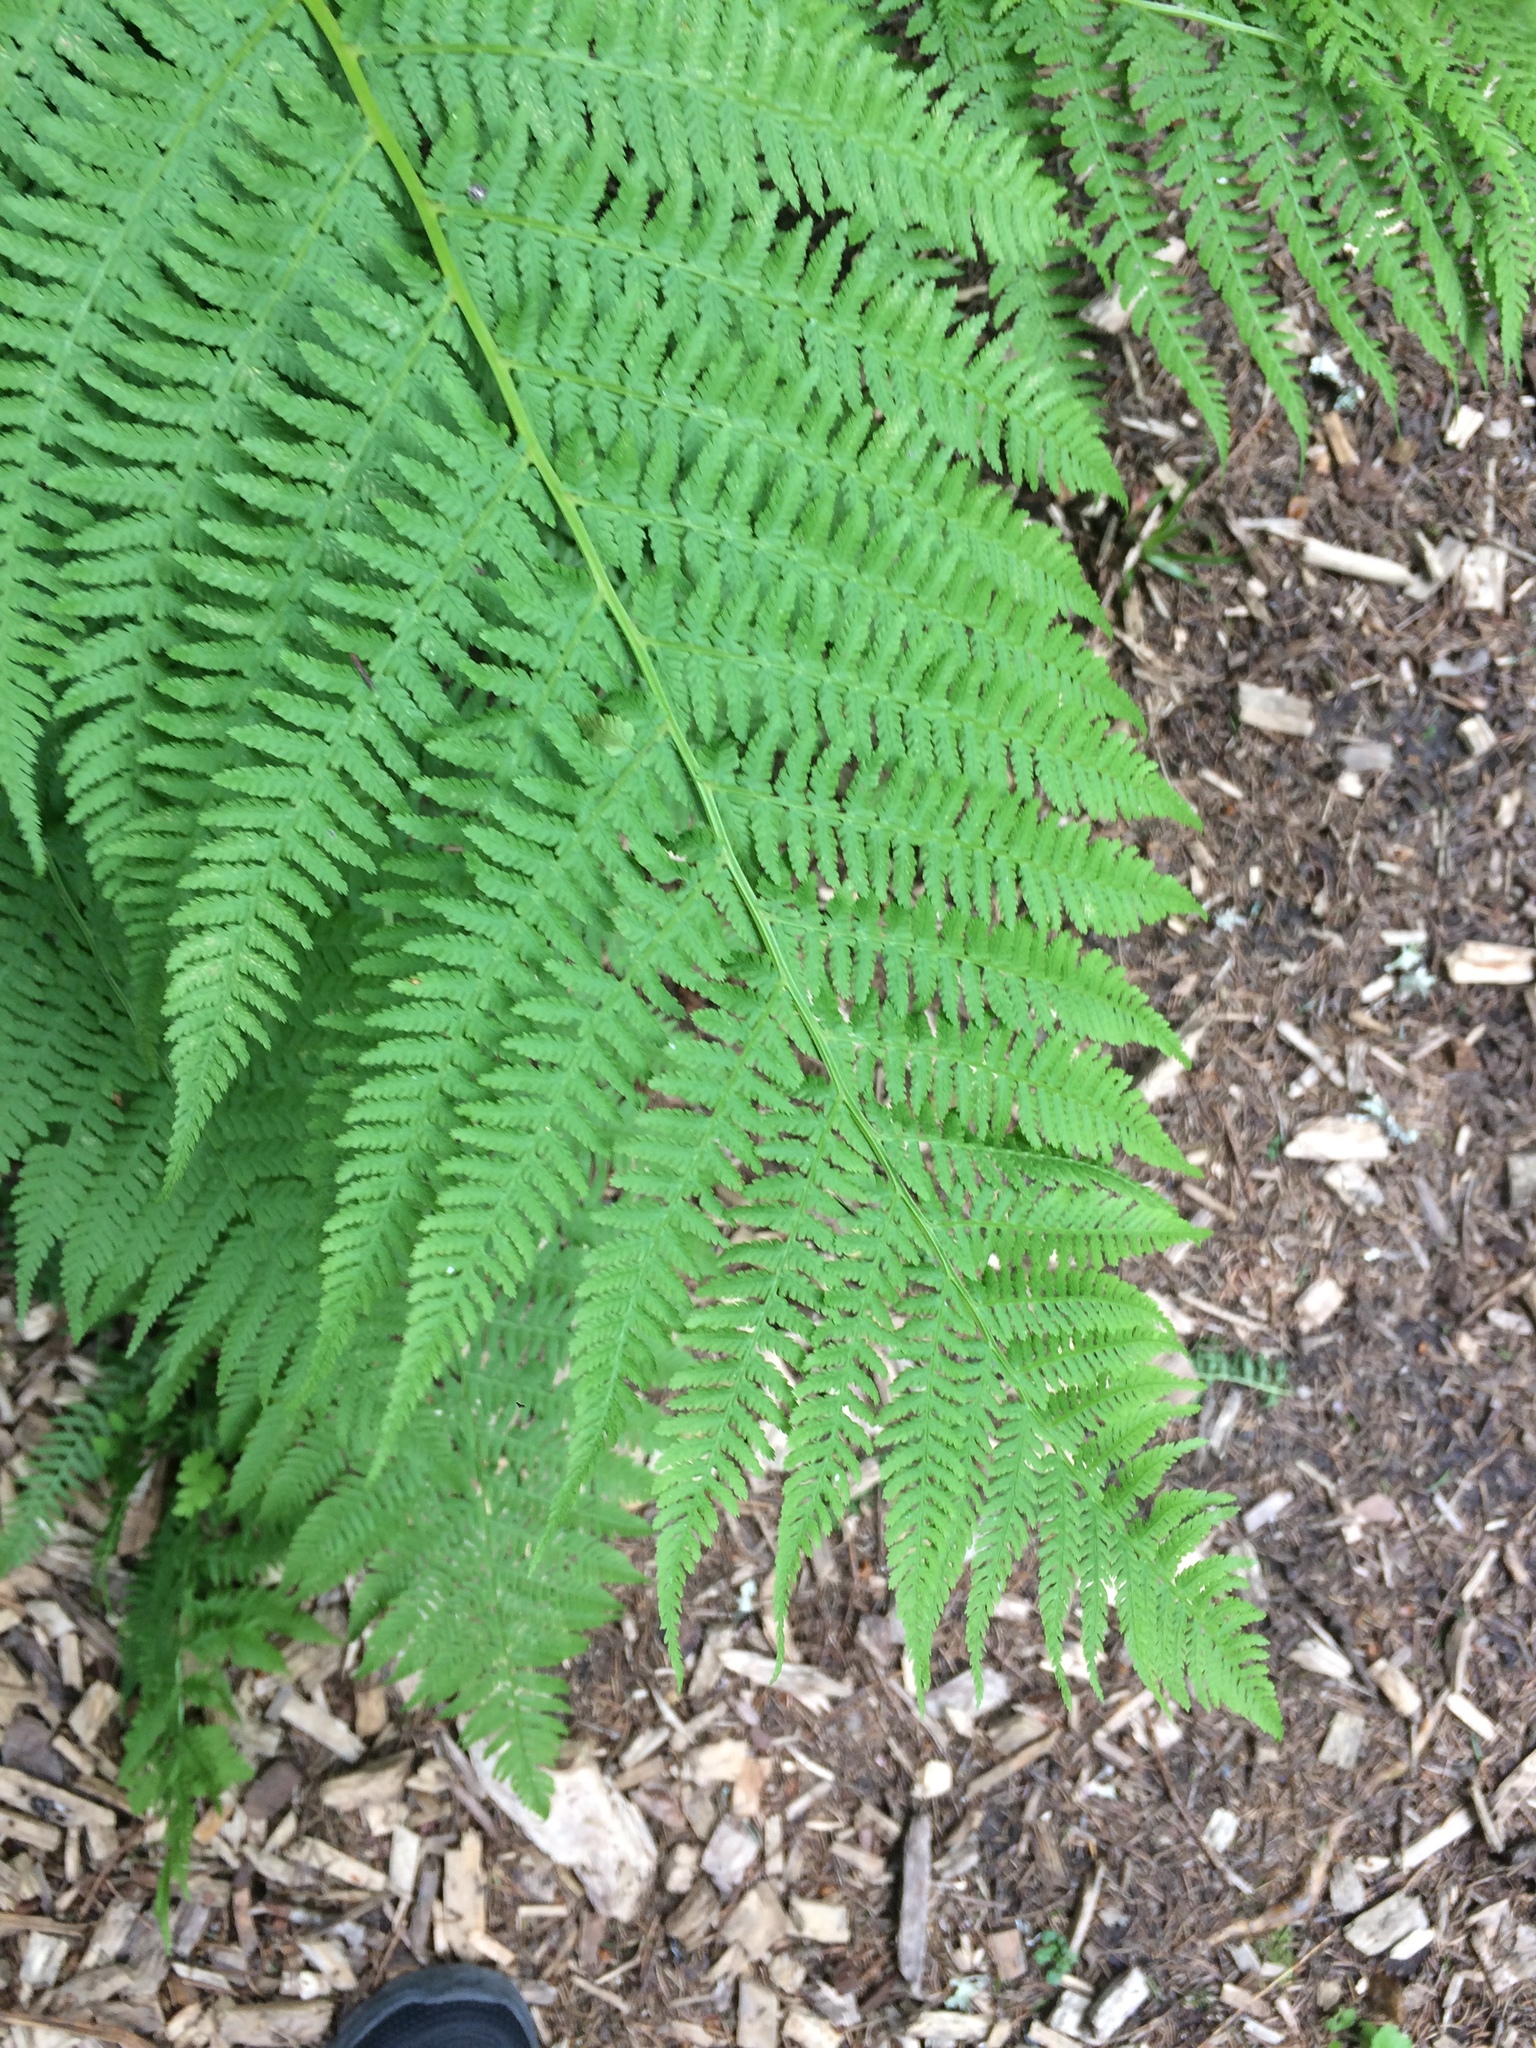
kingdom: Plantae
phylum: Tracheophyta
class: Polypodiopsida
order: Polypodiales
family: Athyriaceae
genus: Athyrium
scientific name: Athyrium filix-femina
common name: Lady fern
